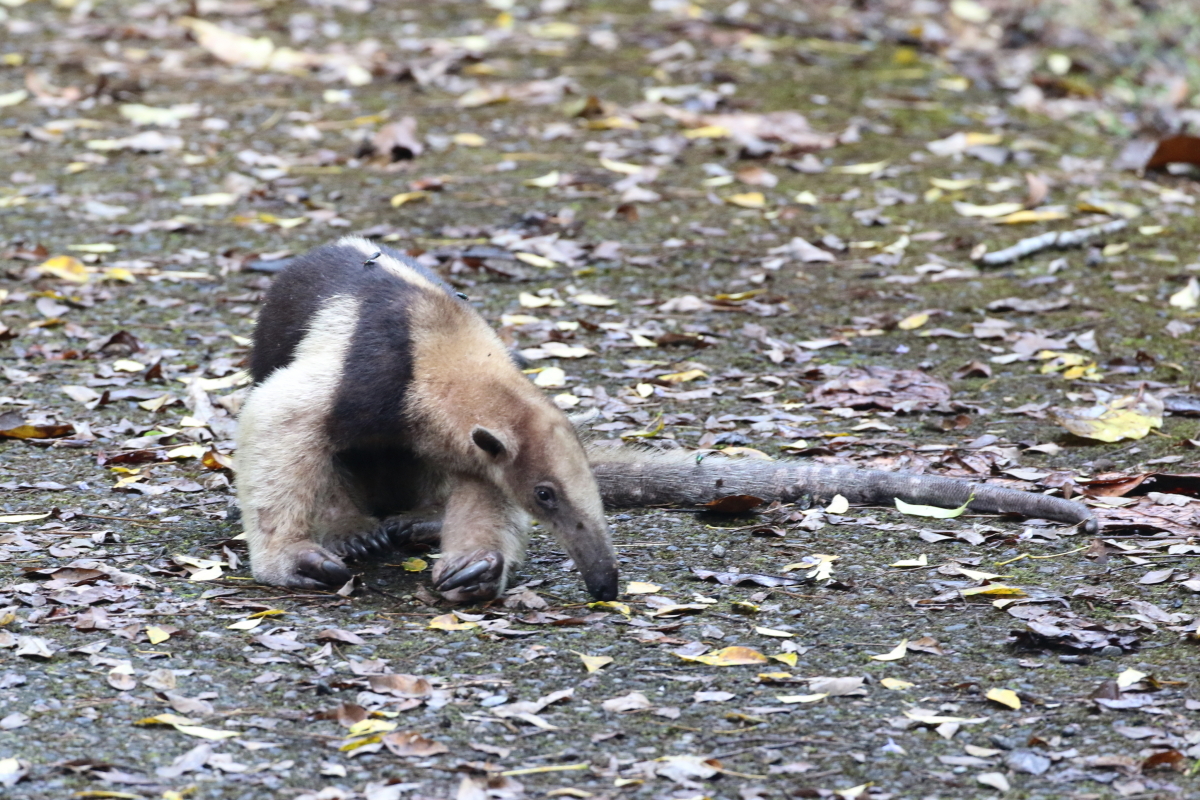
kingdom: Animalia
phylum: Chordata
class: Mammalia
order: Pilosa
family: Myrmecophagidae
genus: Tamandua
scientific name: Tamandua mexicana
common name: Northern tamandua
